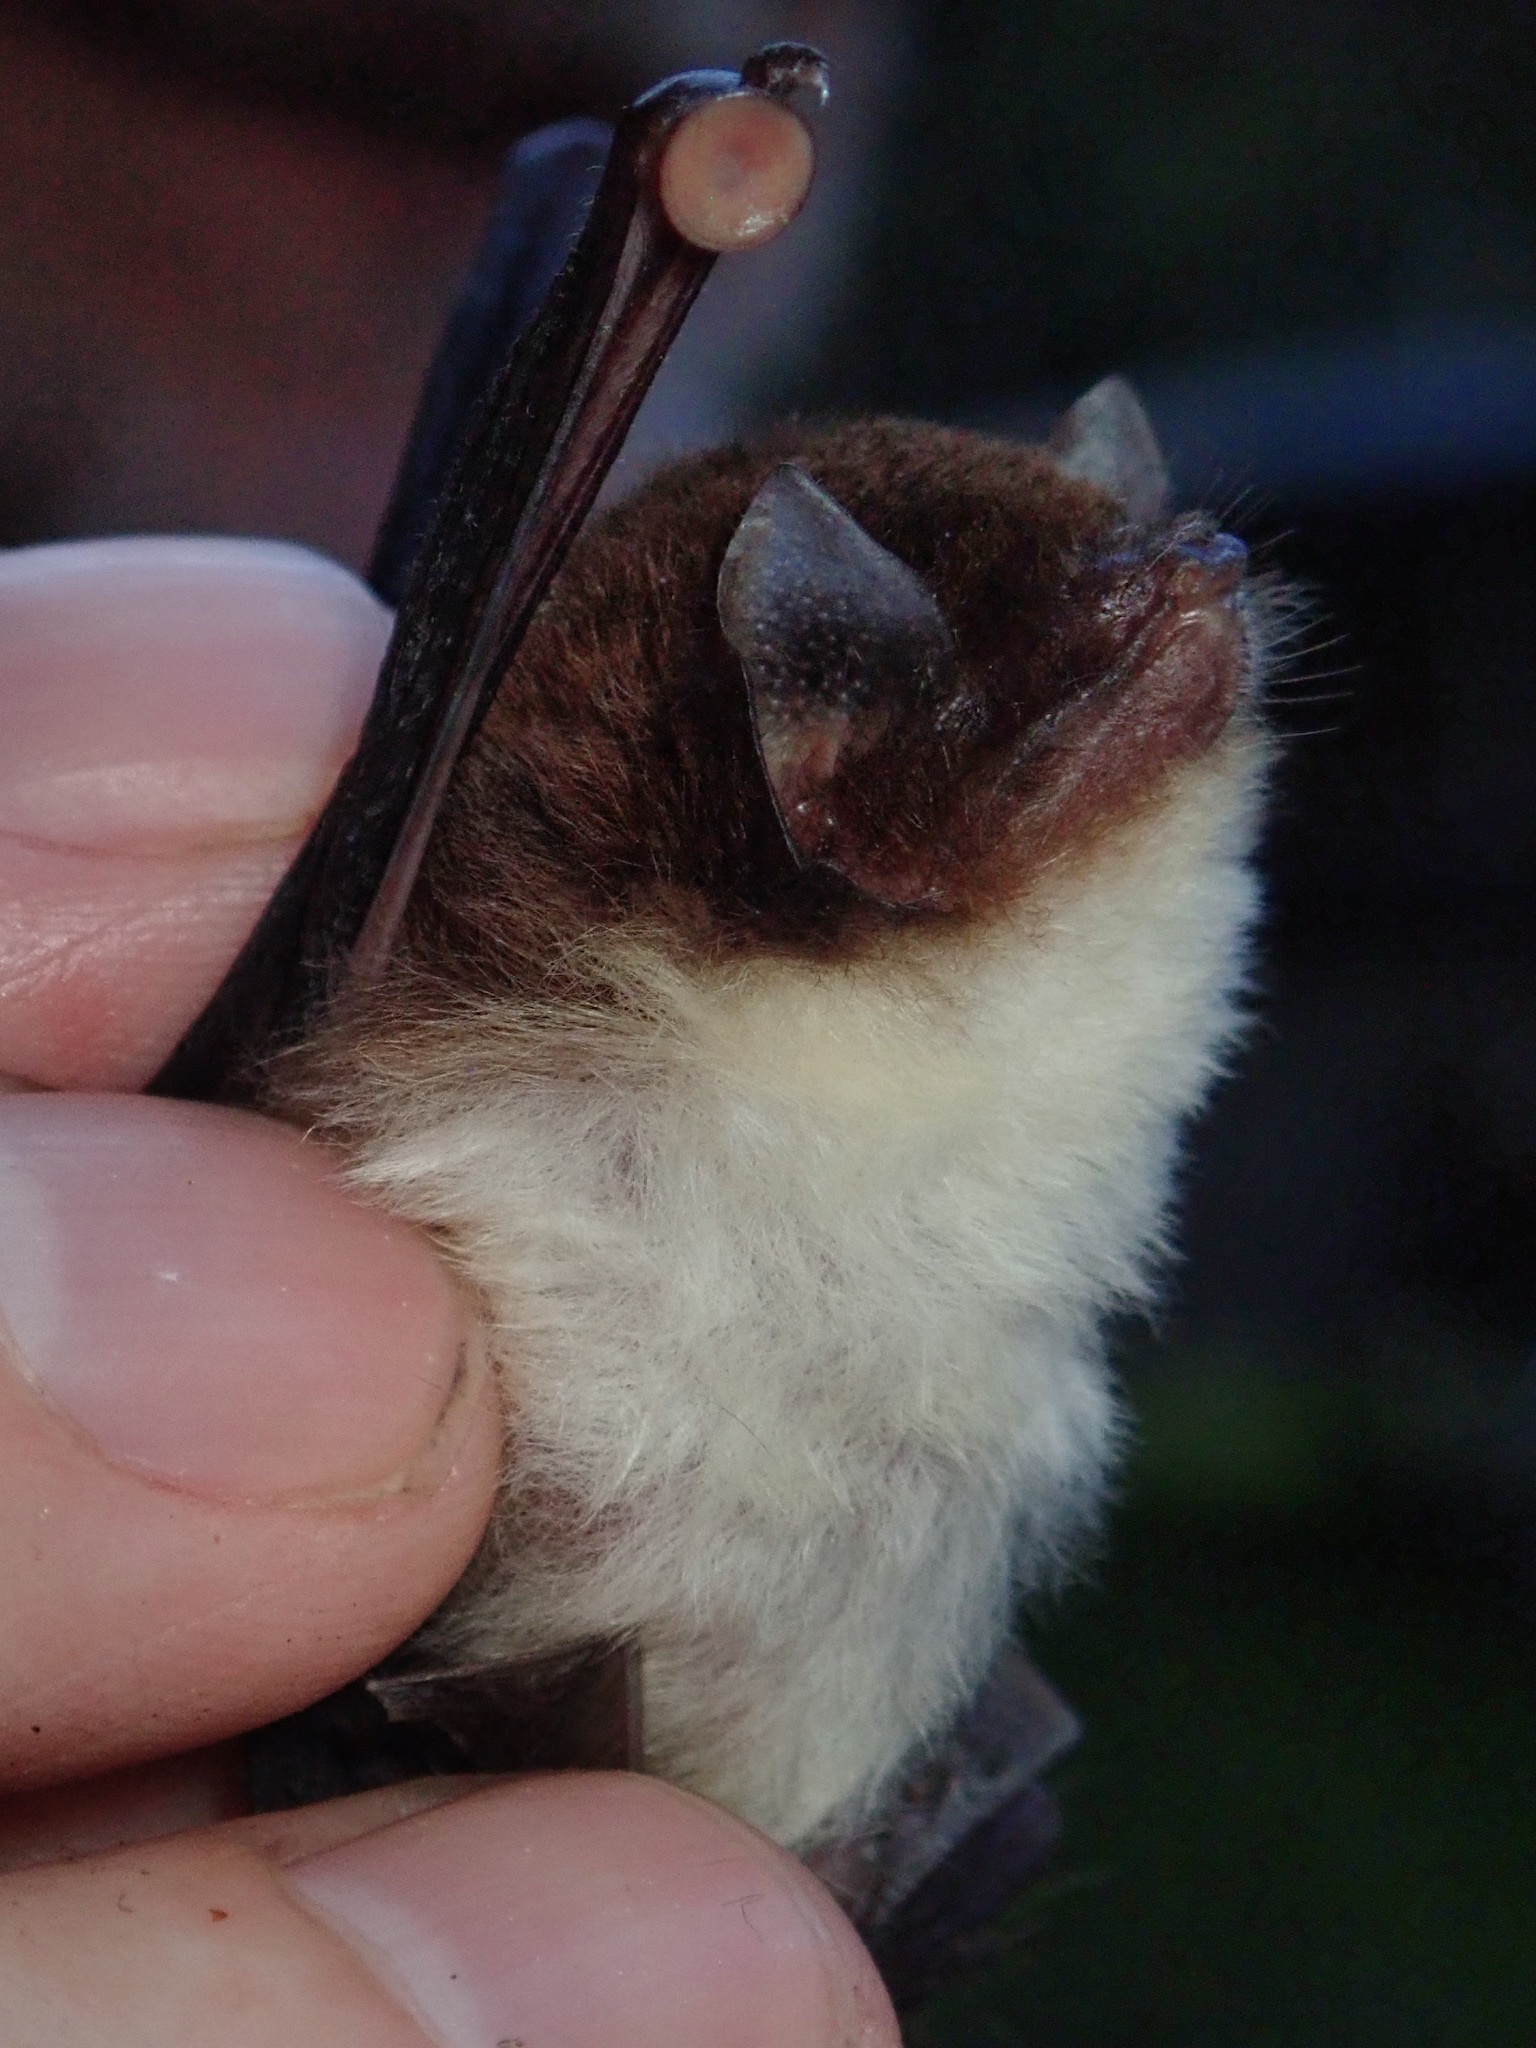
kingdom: Animalia
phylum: Chordata
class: Mammalia
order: Chiroptera
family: Thyropteridae
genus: Thyroptera
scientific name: Thyroptera tricolor
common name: Spix's disk-winged bat
